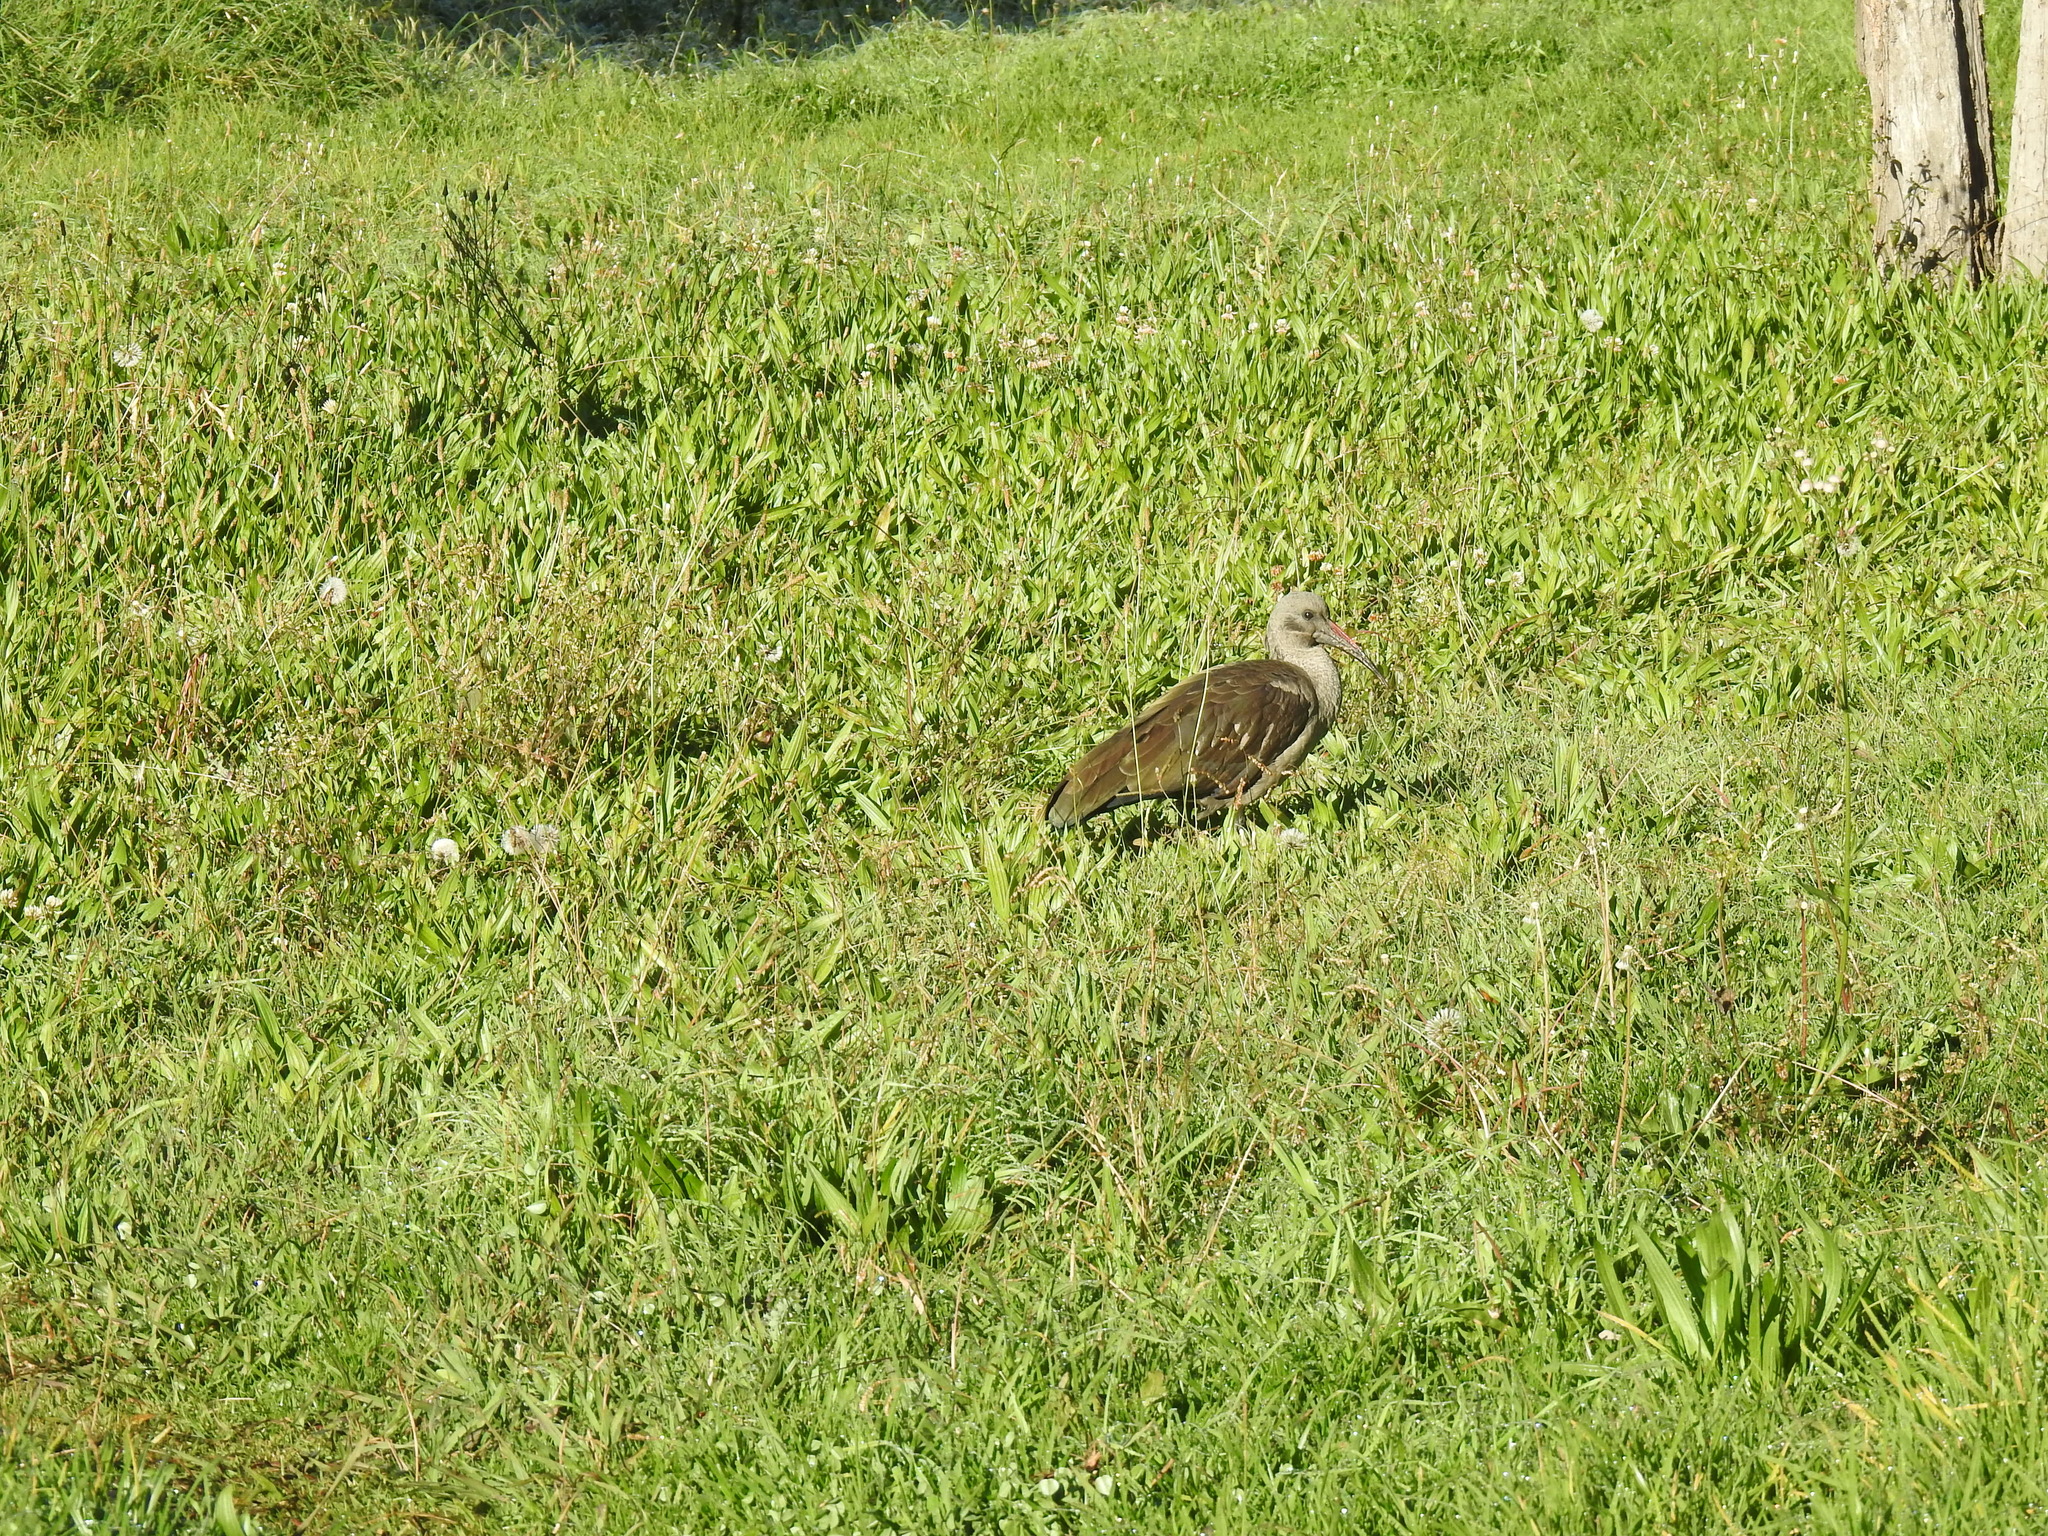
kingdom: Animalia
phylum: Chordata
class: Aves
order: Pelecaniformes
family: Threskiornithidae
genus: Bostrychia
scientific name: Bostrychia hagedash
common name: Hadada ibis
